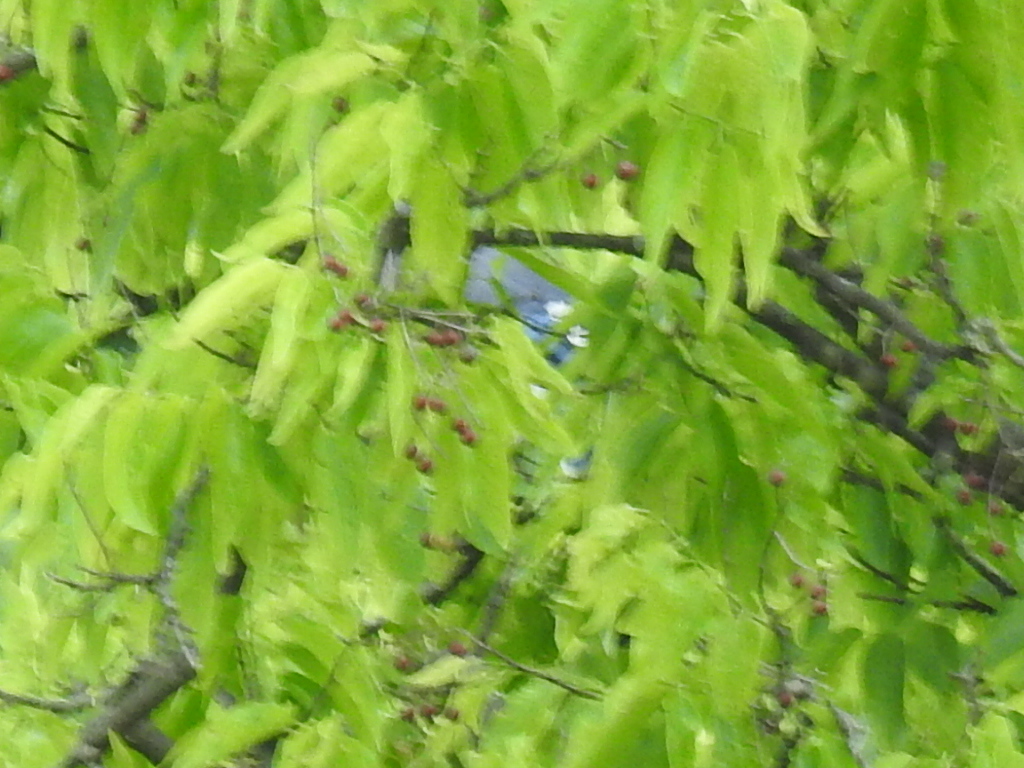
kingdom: Animalia
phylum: Chordata
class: Aves
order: Passeriformes
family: Corvidae
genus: Cyanocitta
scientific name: Cyanocitta cristata
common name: Blue jay
